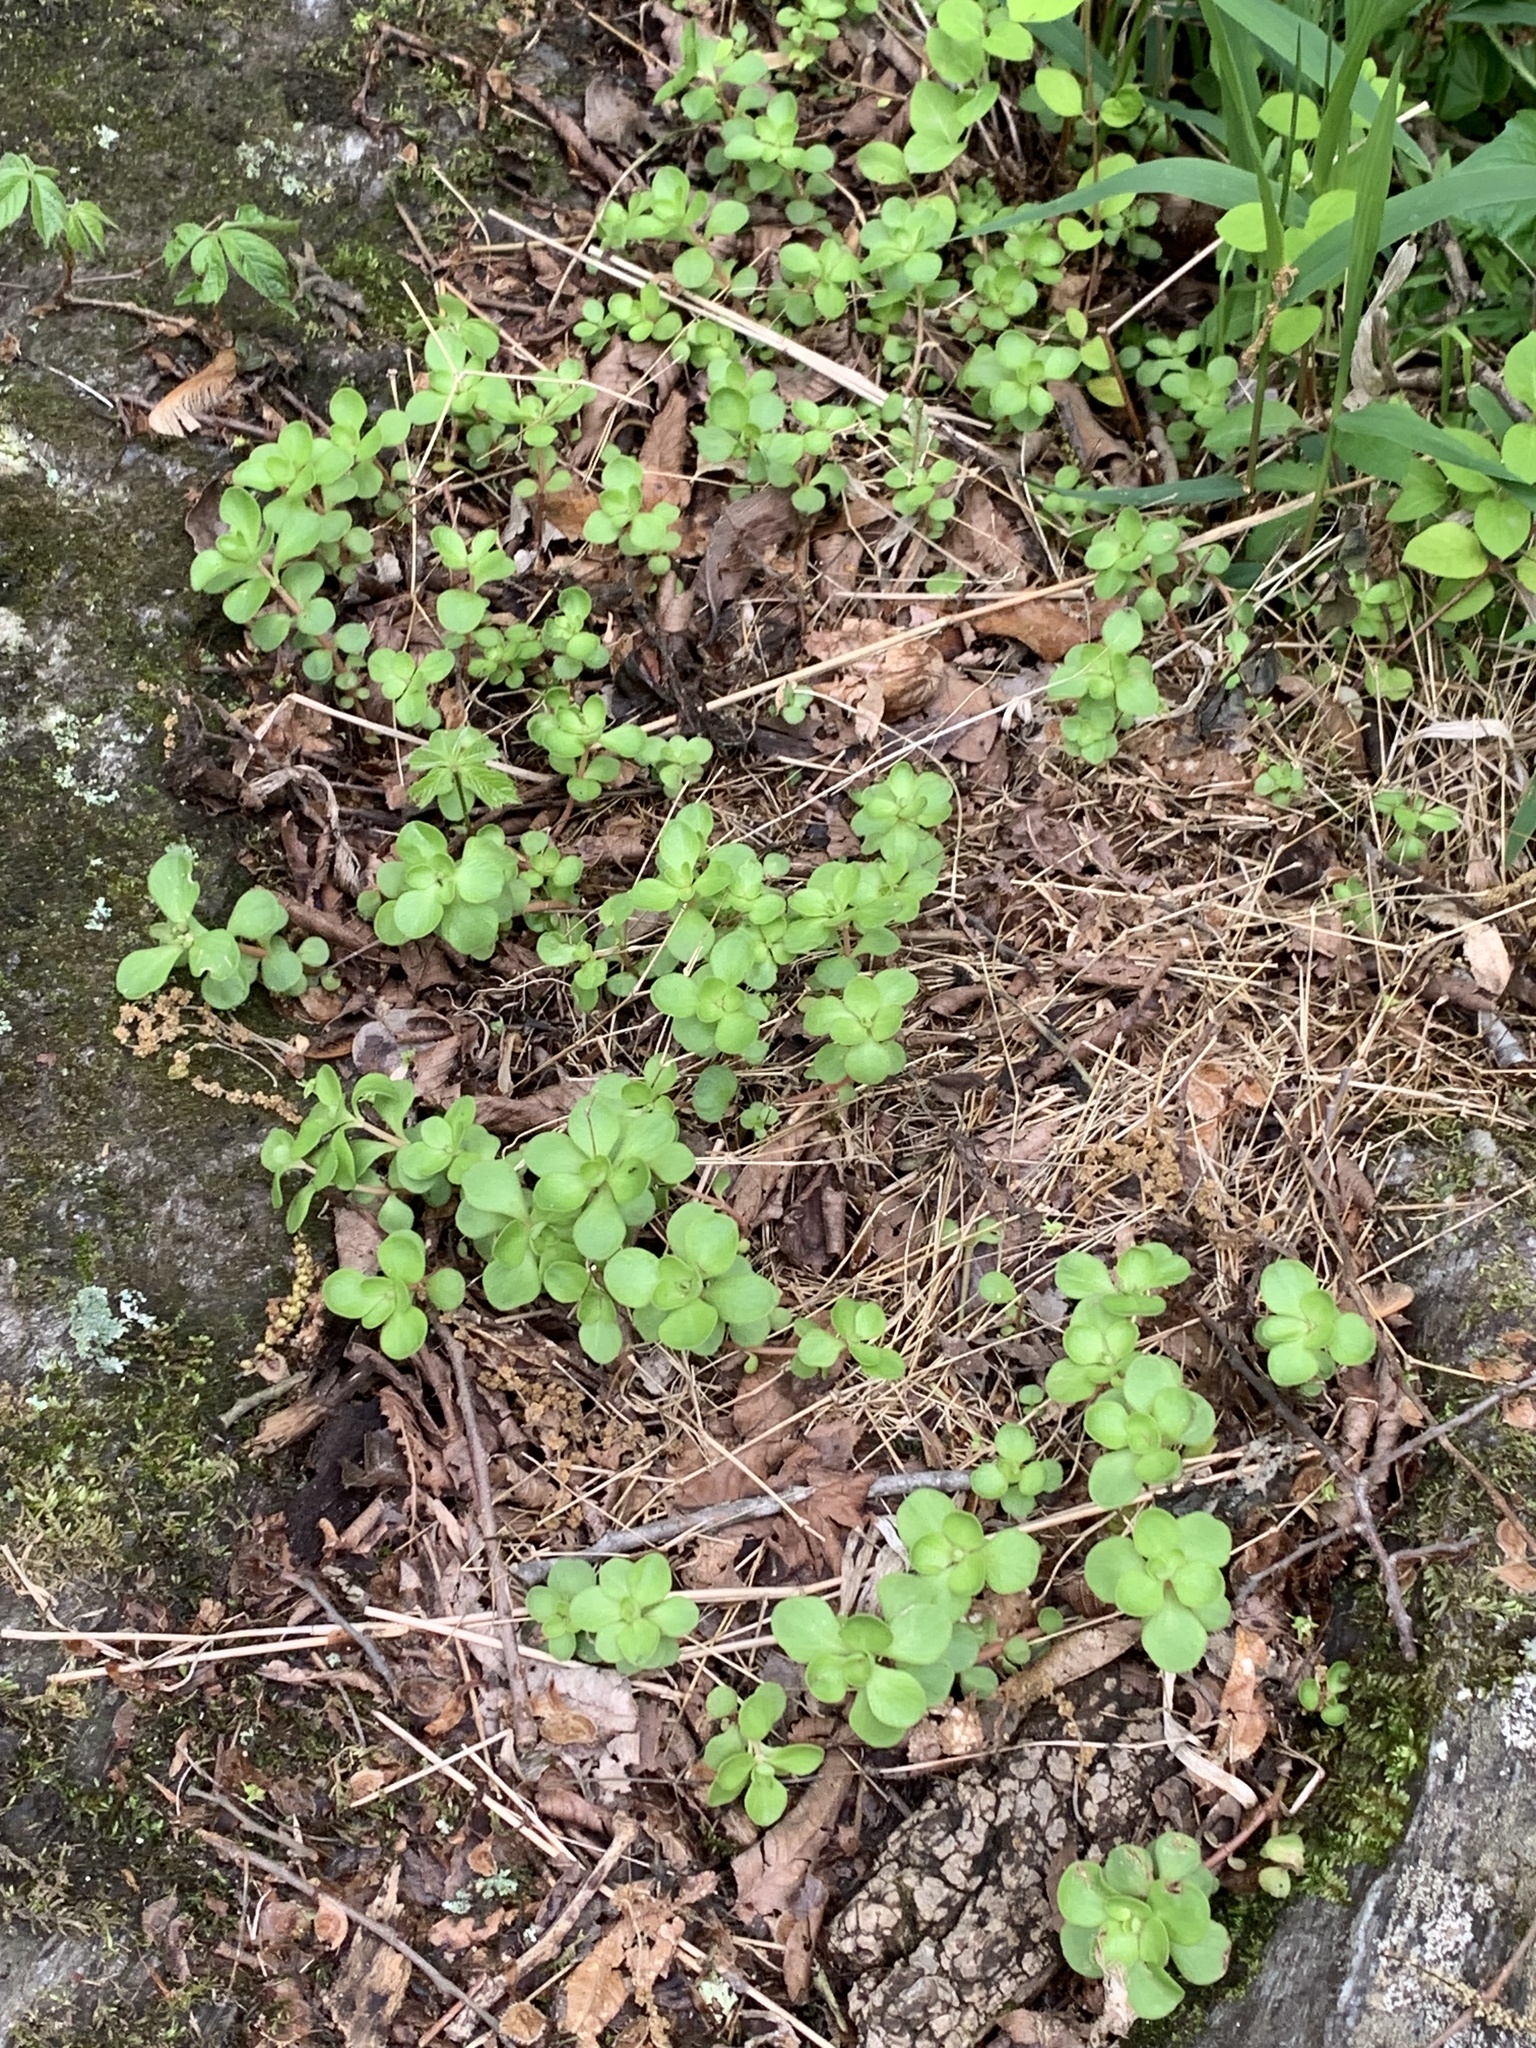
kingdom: Plantae
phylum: Tracheophyta
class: Magnoliopsida
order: Saxifragales
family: Crassulaceae
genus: Sedum
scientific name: Sedum ternatum
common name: Wild stonecrop
